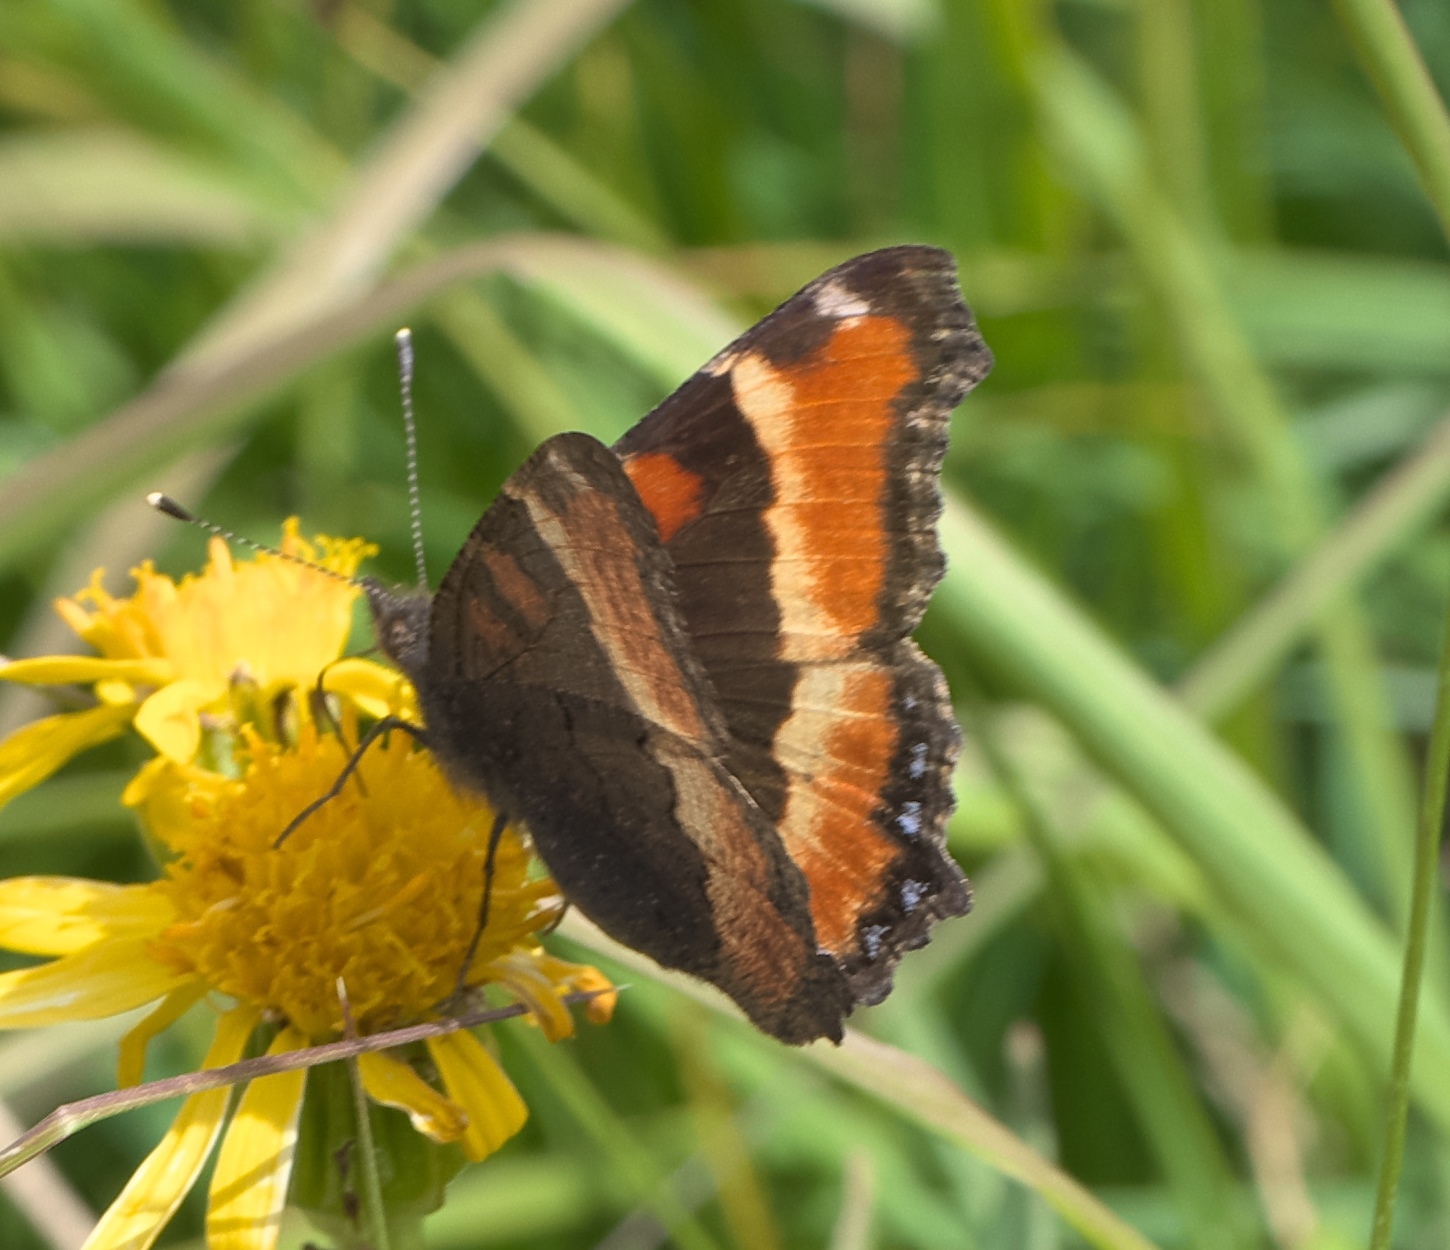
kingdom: Animalia
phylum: Arthropoda
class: Insecta
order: Lepidoptera
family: Nymphalidae
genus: Aglais
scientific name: Aglais milberti
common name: Milbert's tortoiseshell
